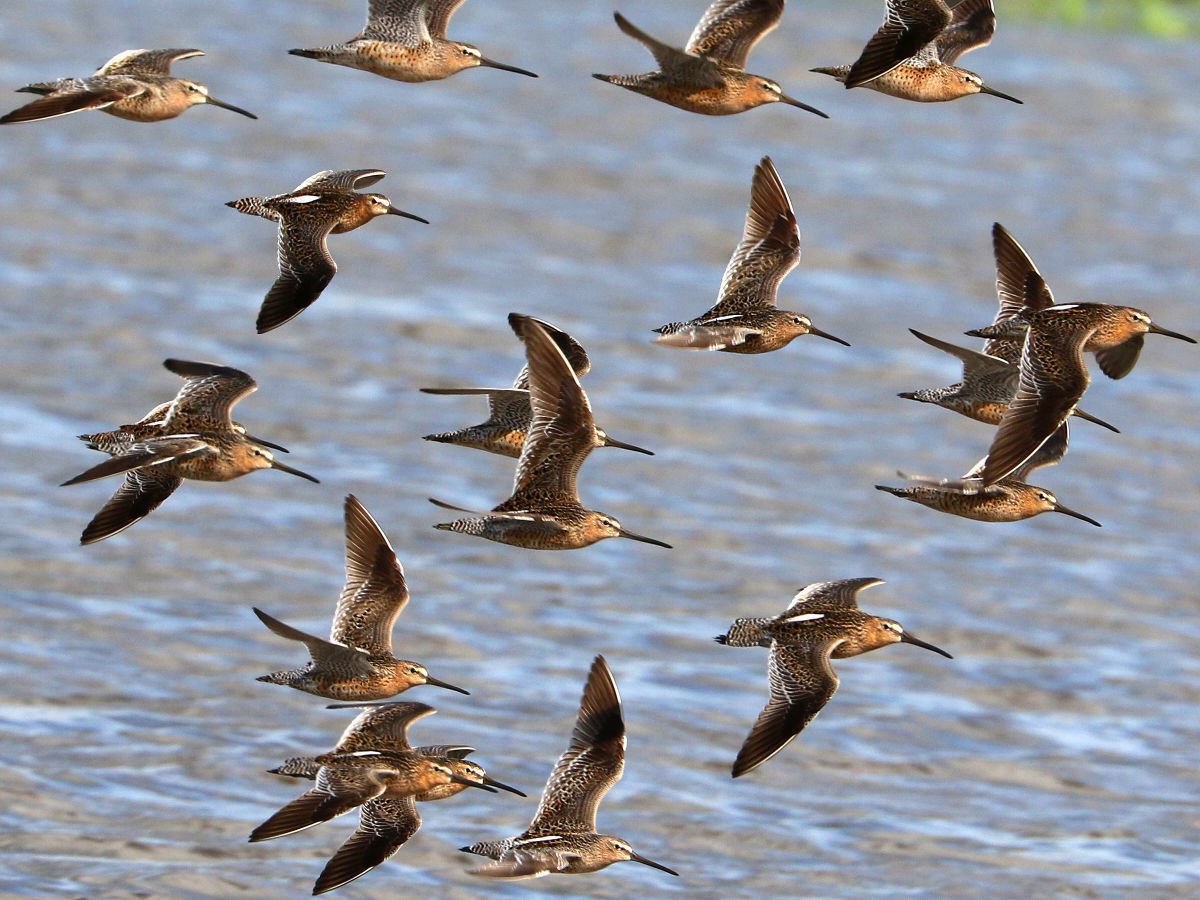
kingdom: Animalia
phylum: Chordata
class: Aves
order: Charadriiformes
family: Scolopacidae
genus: Limnodromus
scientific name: Limnodromus griseus
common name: Short-billed dowitcher
